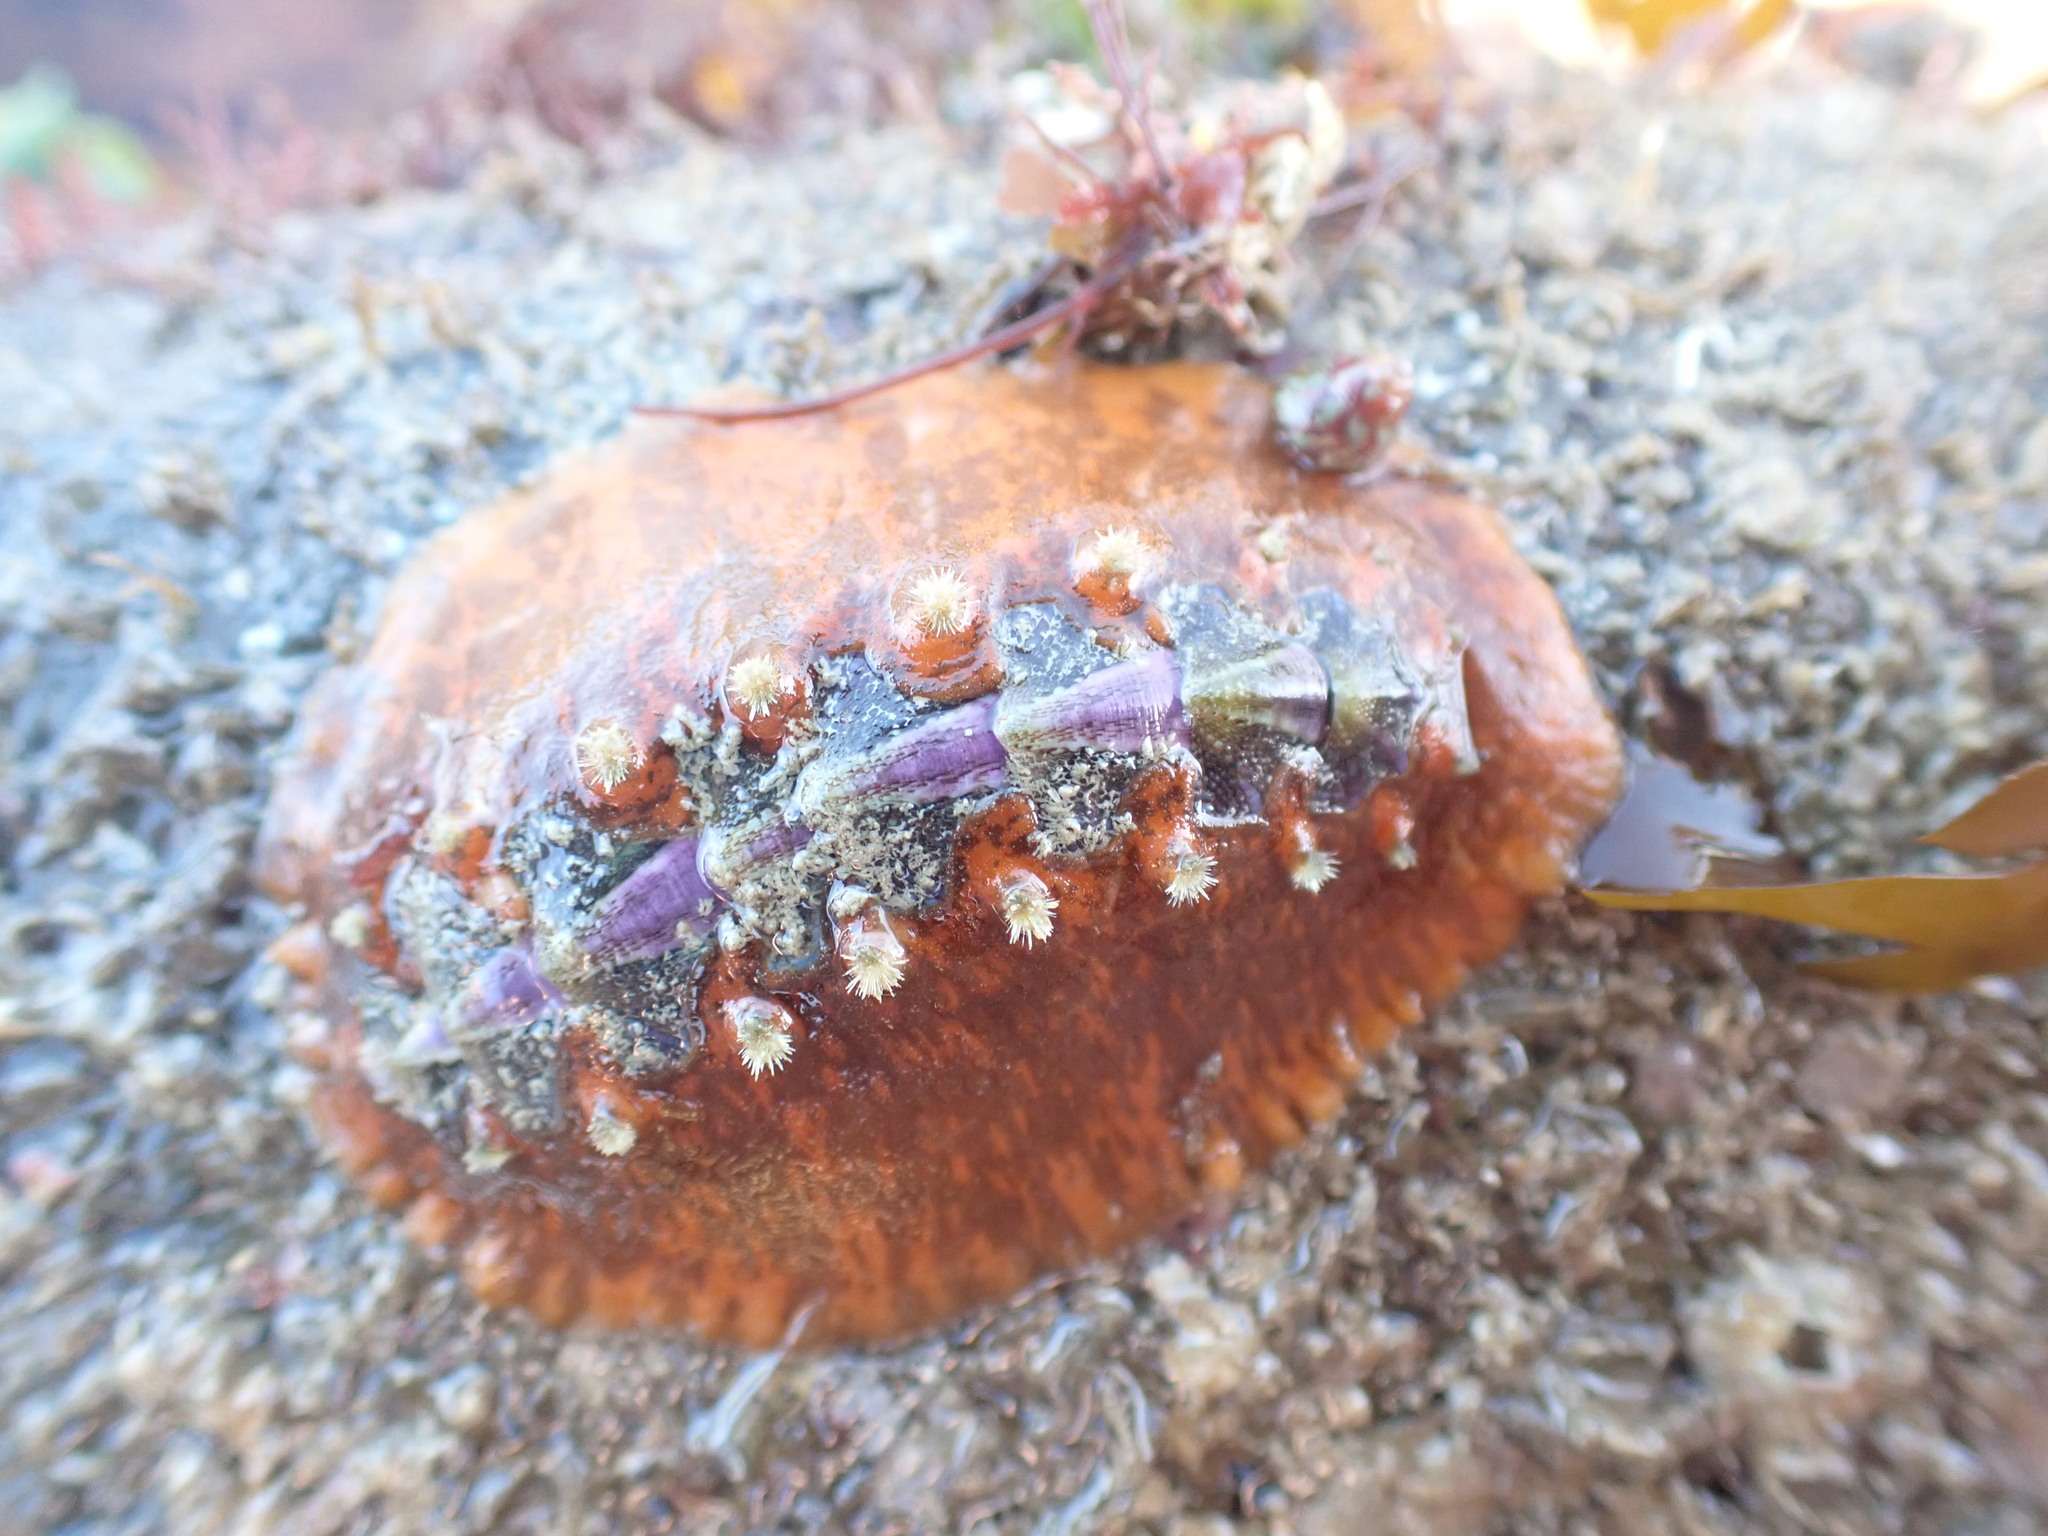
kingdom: Animalia
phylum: Mollusca
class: Polyplacophora
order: Chitonida
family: Acanthochitonidae
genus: Notoplax
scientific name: Notoplax violacea
